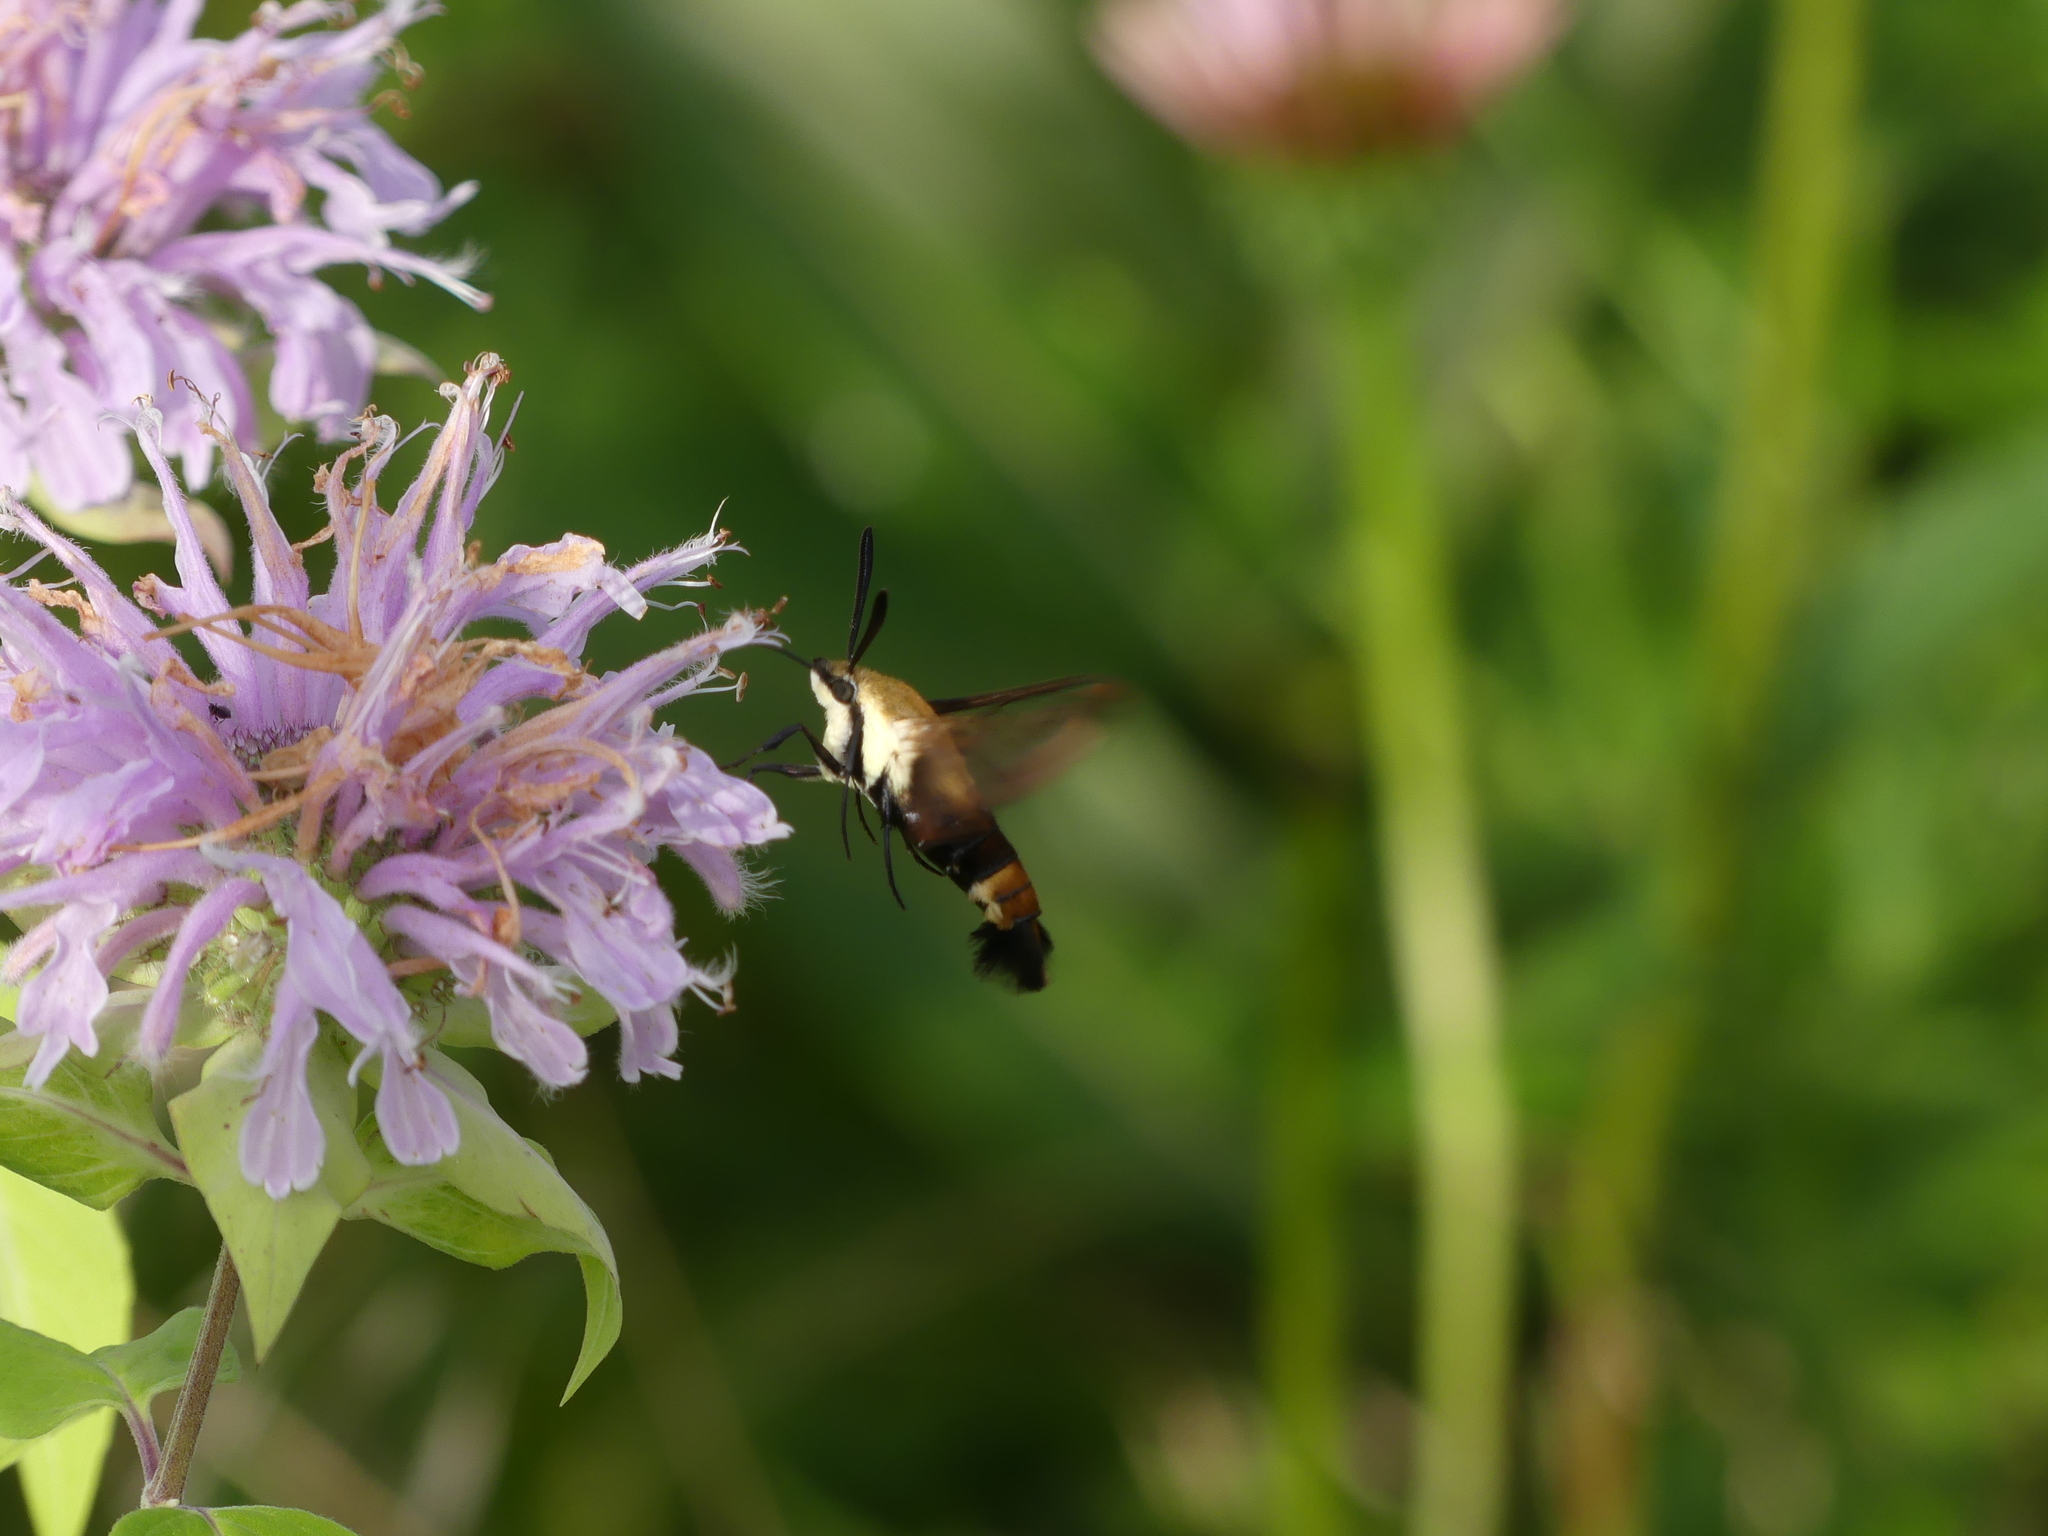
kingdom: Animalia
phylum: Arthropoda
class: Insecta
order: Lepidoptera
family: Sphingidae
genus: Hemaris
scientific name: Hemaris diffinis
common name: Bumblebee moth
